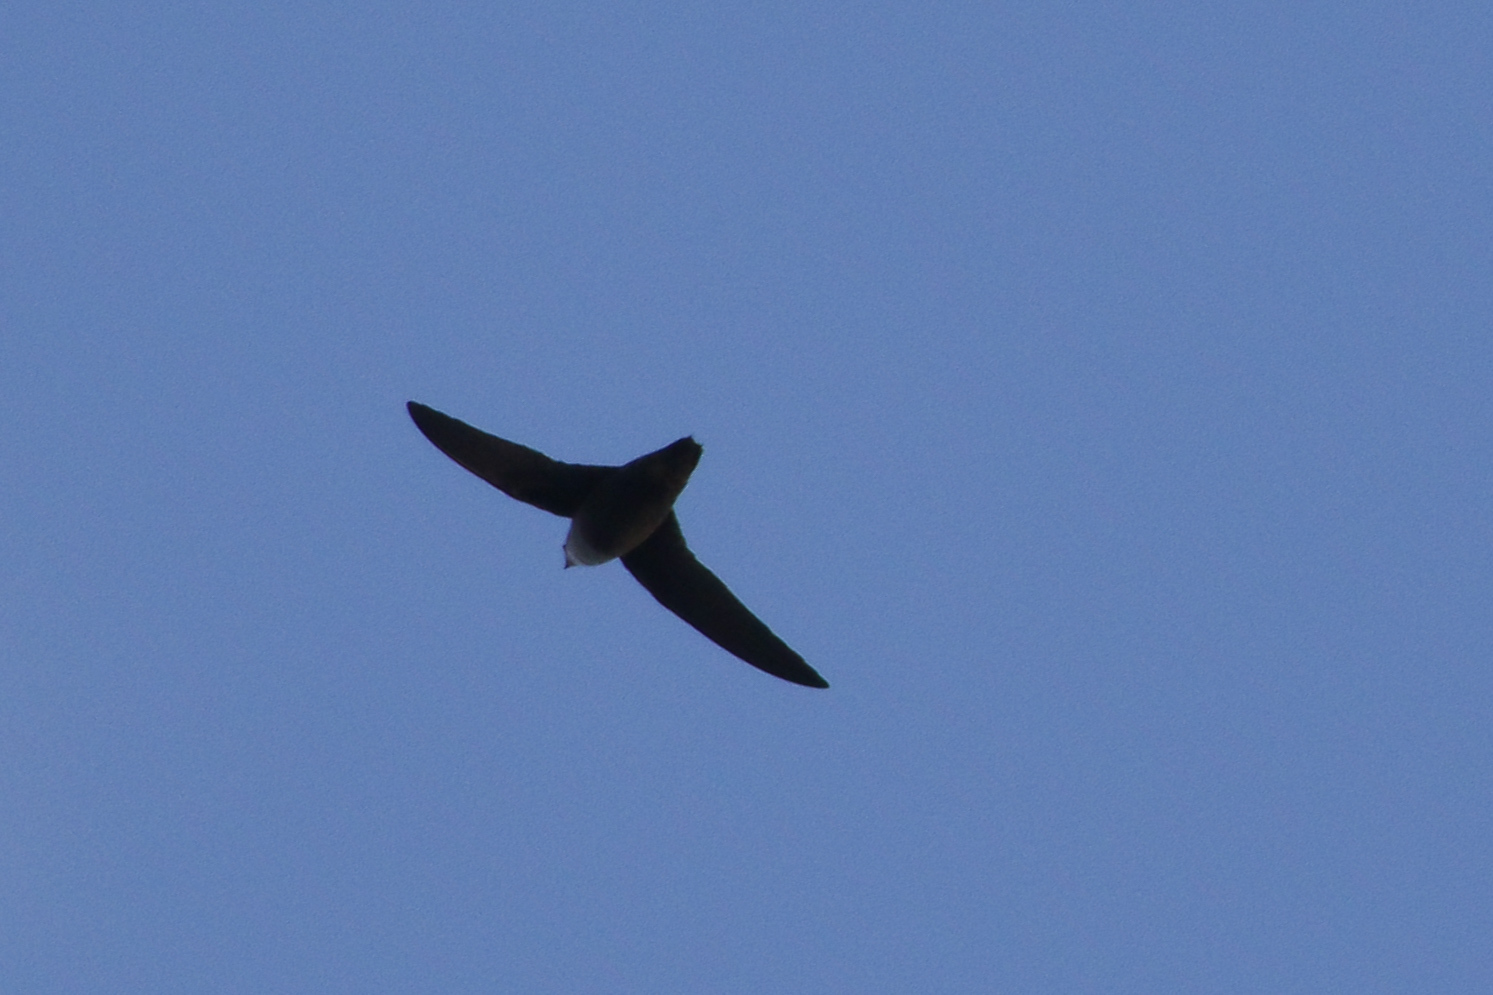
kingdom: Animalia
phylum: Chordata
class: Aves
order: Apodiformes
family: Apodidae
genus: Chaetura
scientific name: Chaetura pelagica
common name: Chimney swift
